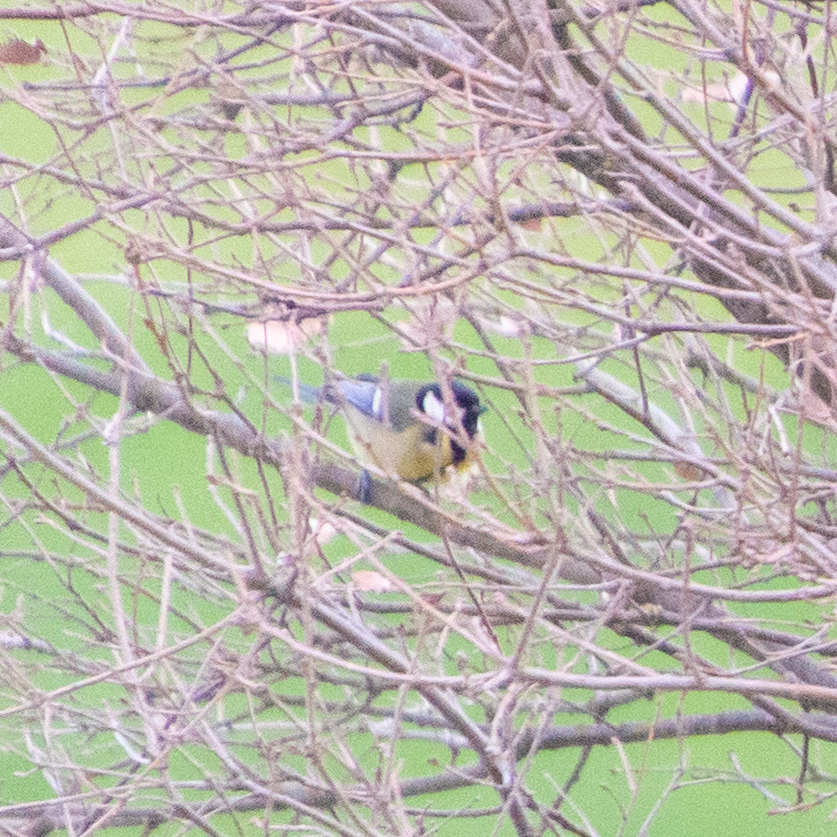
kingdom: Animalia
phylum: Chordata
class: Aves
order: Passeriformes
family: Paridae
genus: Parus
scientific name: Parus major
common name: Great tit
